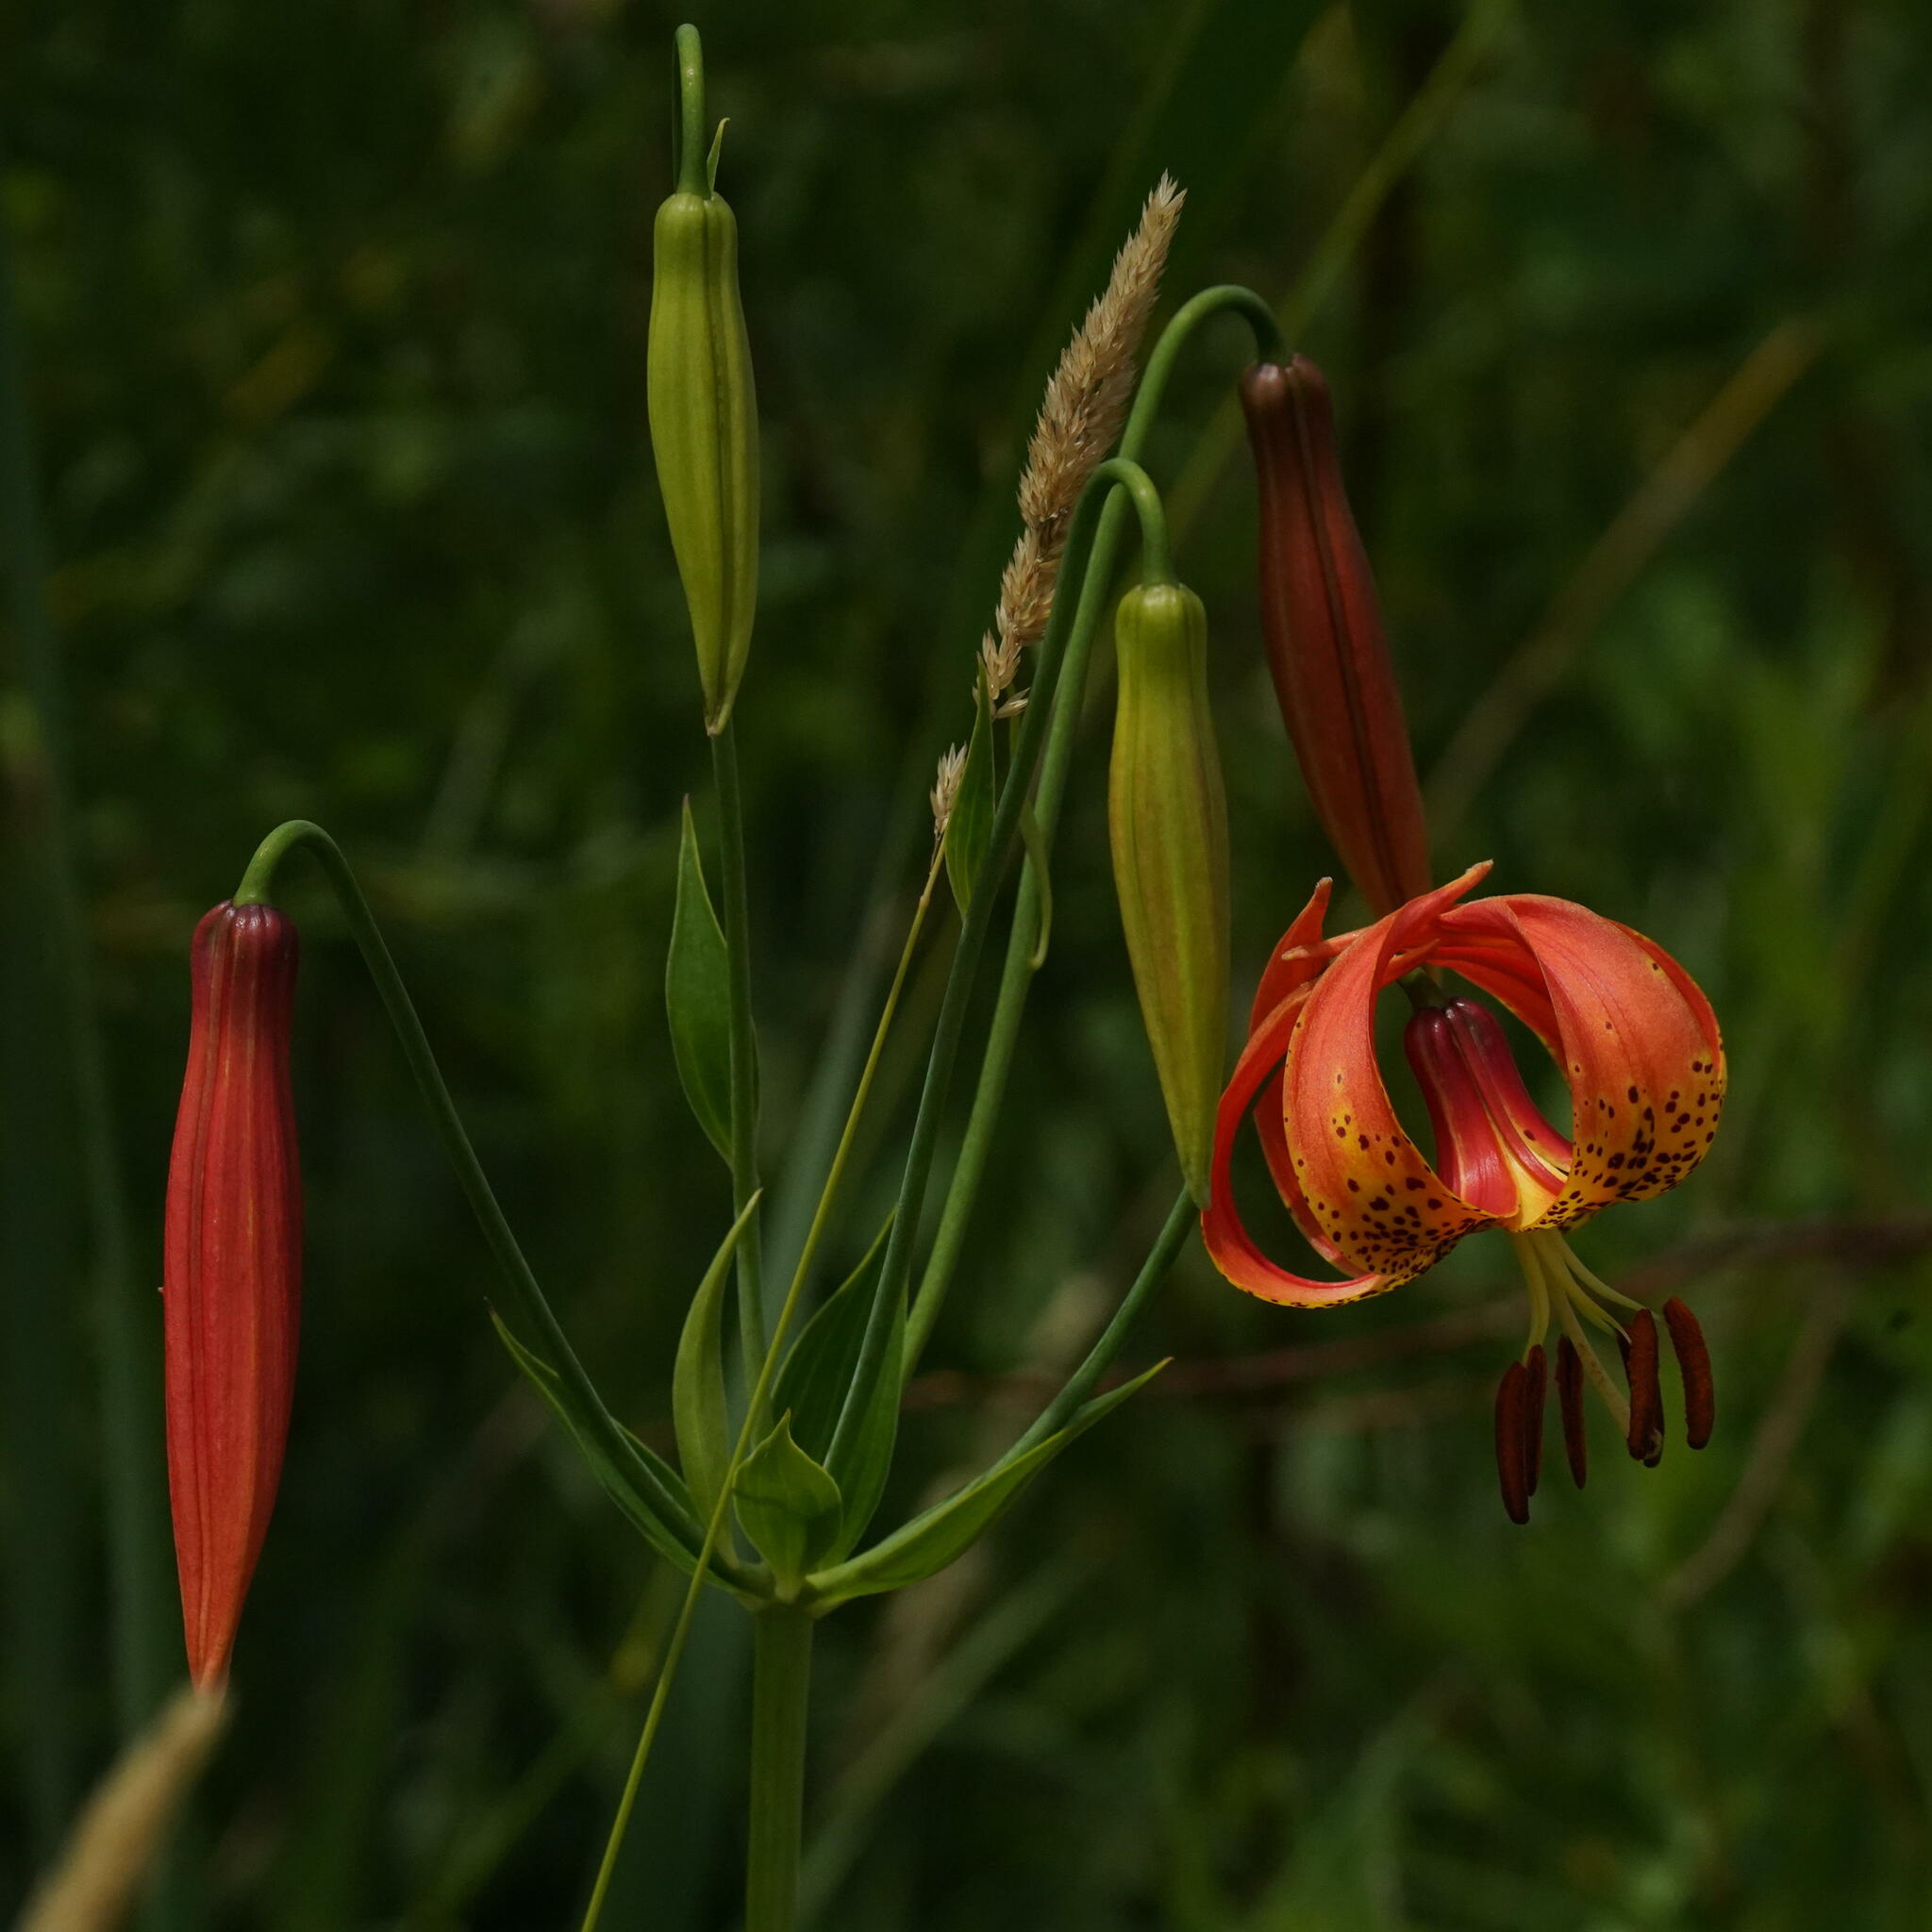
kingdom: Plantae
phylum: Tracheophyta
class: Liliopsida
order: Liliales
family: Liliaceae
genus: Lilium
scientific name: Lilium michiganense
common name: Michigan lily
